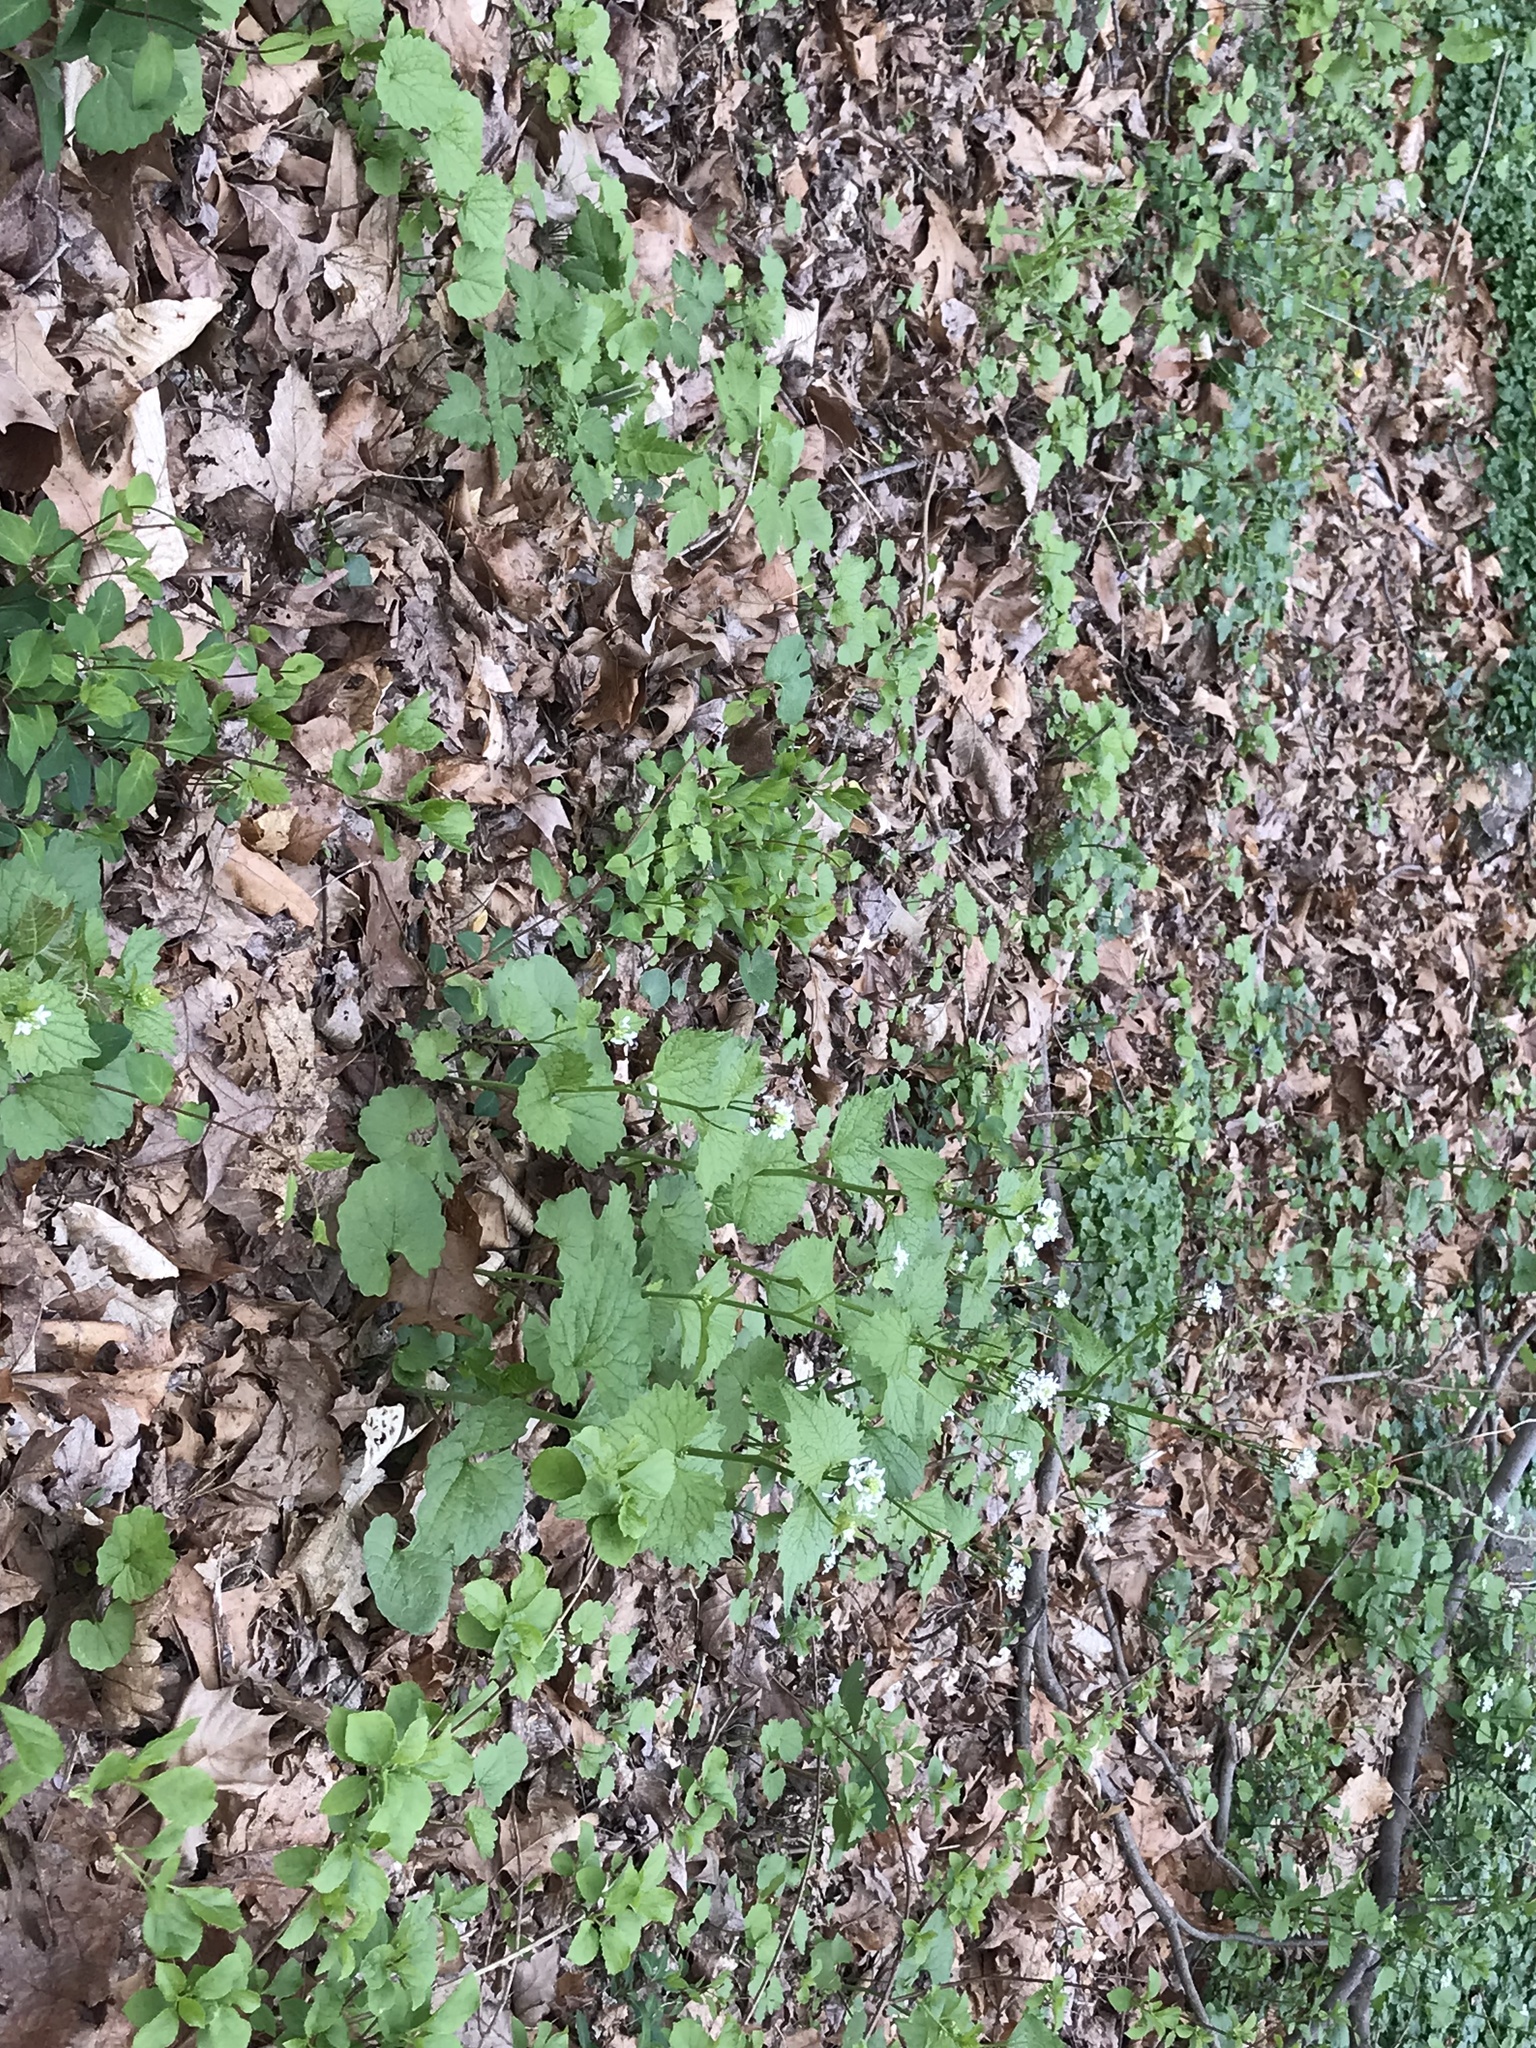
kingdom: Plantae
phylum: Tracheophyta
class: Magnoliopsida
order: Brassicales
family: Brassicaceae
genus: Alliaria
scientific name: Alliaria petiolata
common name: Garlic mustard
